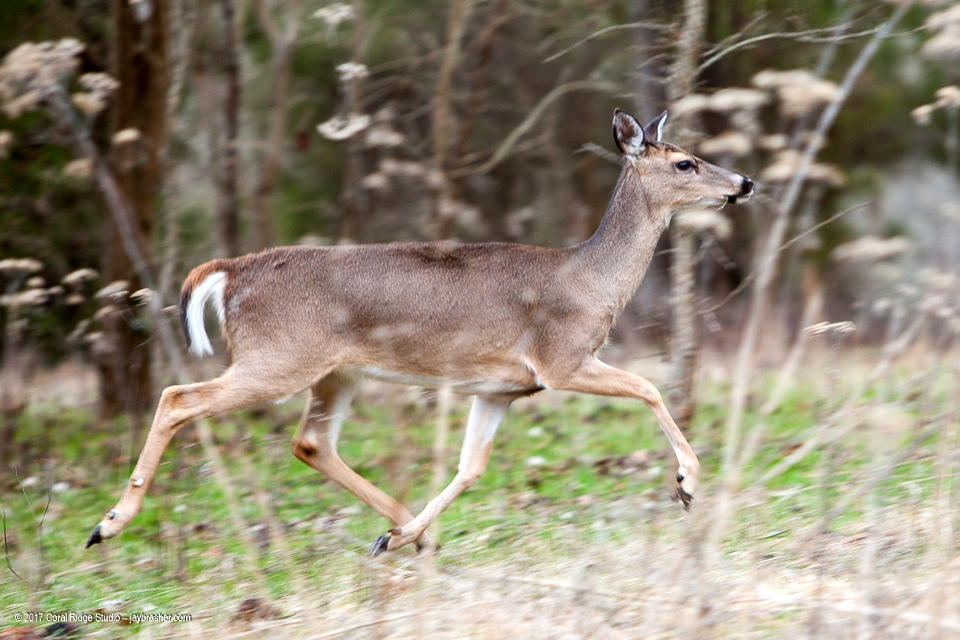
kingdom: Animalia
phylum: Chordata
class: Mammalia
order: Artiodactyla
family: Cervidae
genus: Odocoileus
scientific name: Odocoileus virginianus
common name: White-tailed deer
